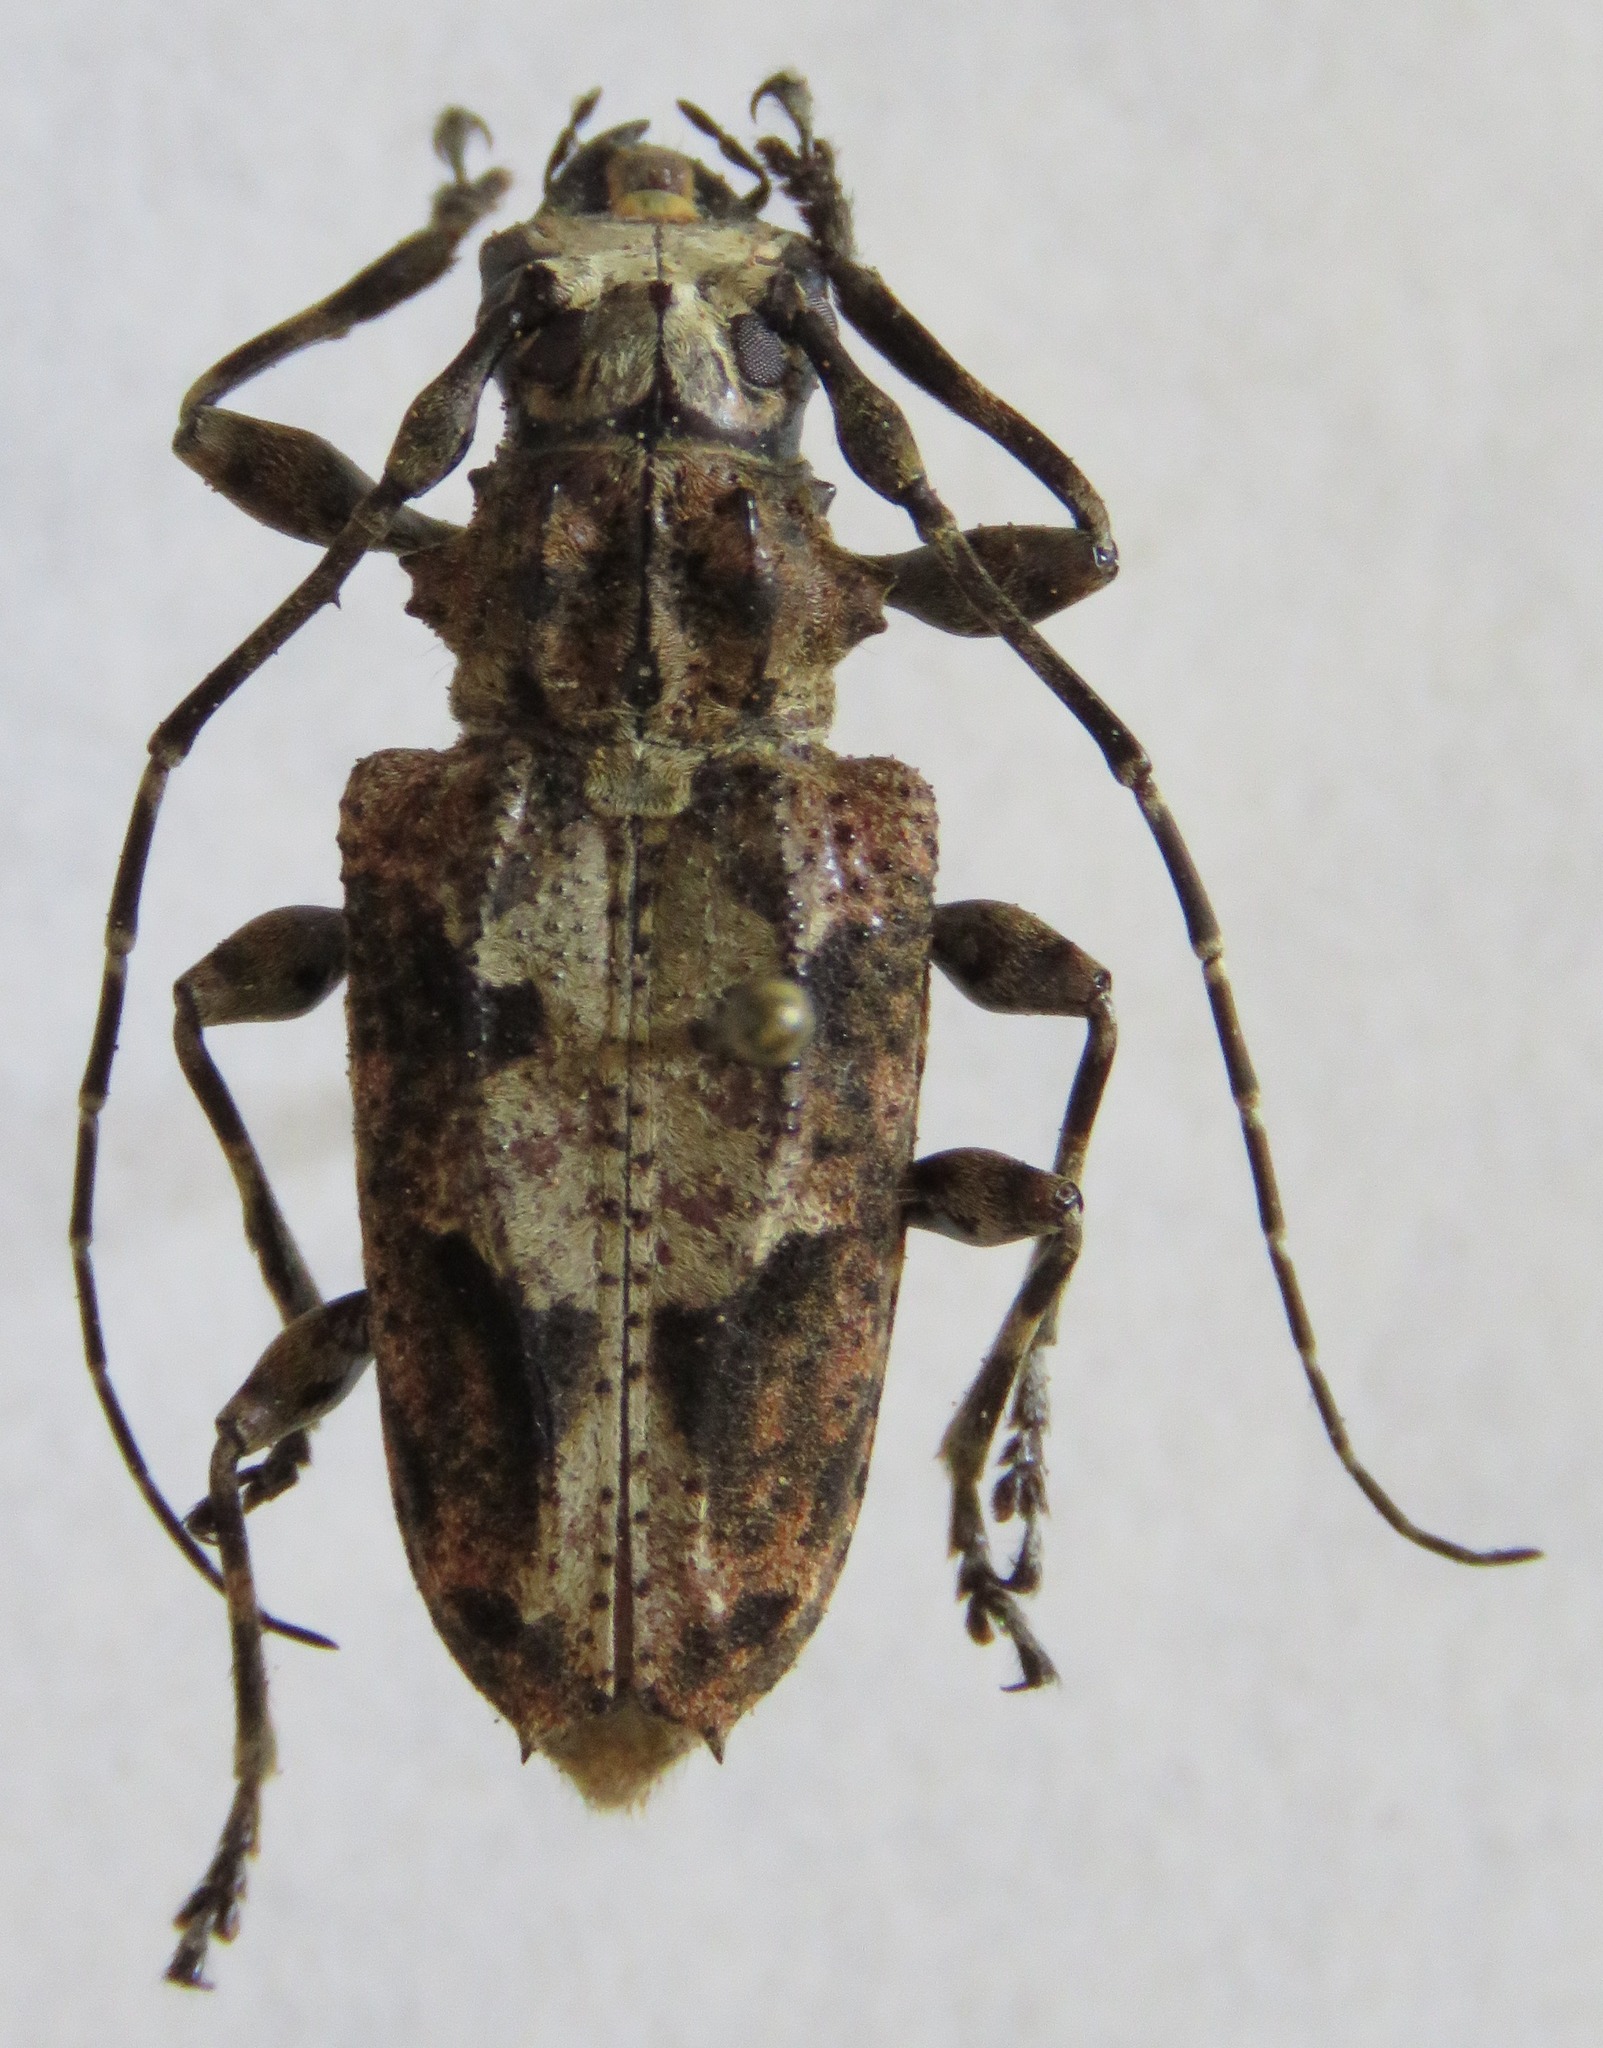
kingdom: Animalia
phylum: Arthropoda
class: Insecta
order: Coleoptera
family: Cerambycidae
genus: Steirastoma
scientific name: Steirastoma senex
